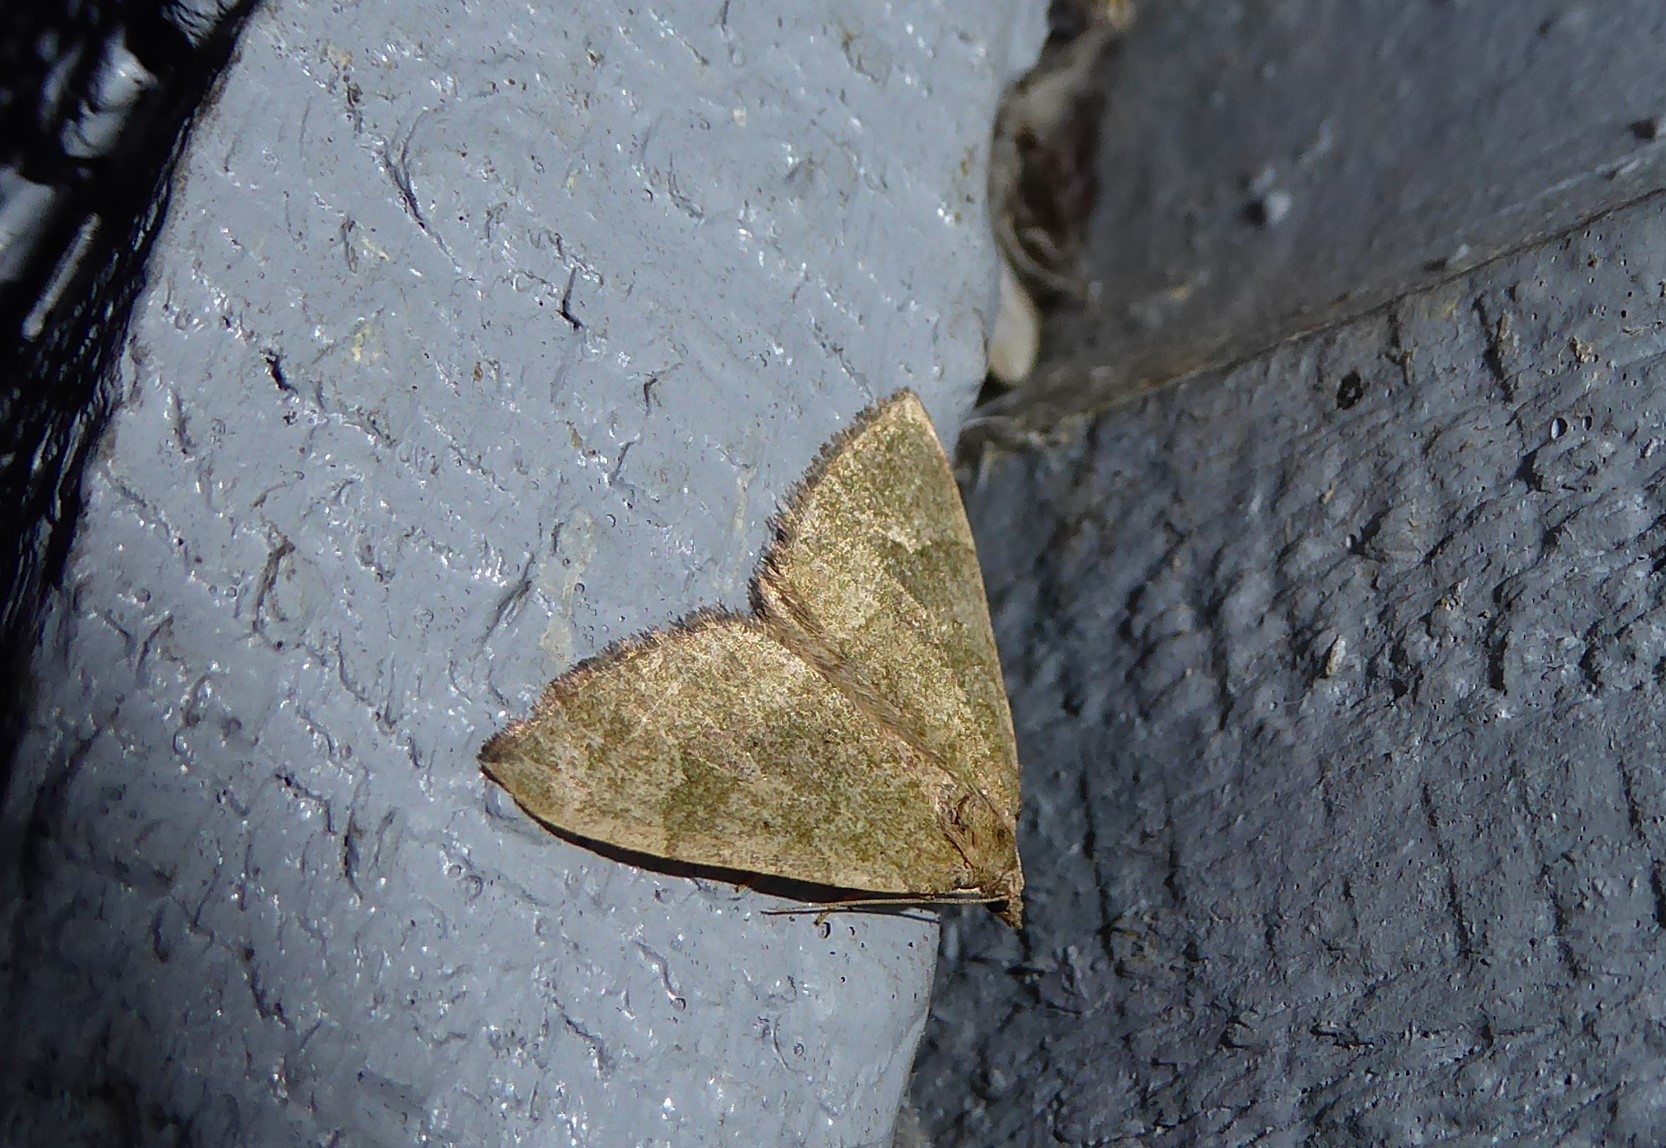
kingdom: Animalia
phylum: Arthropoda
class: Insecta
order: Lepidoptera
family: Geometridae
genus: Epyaxa
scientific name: Epyaxa rosearia
